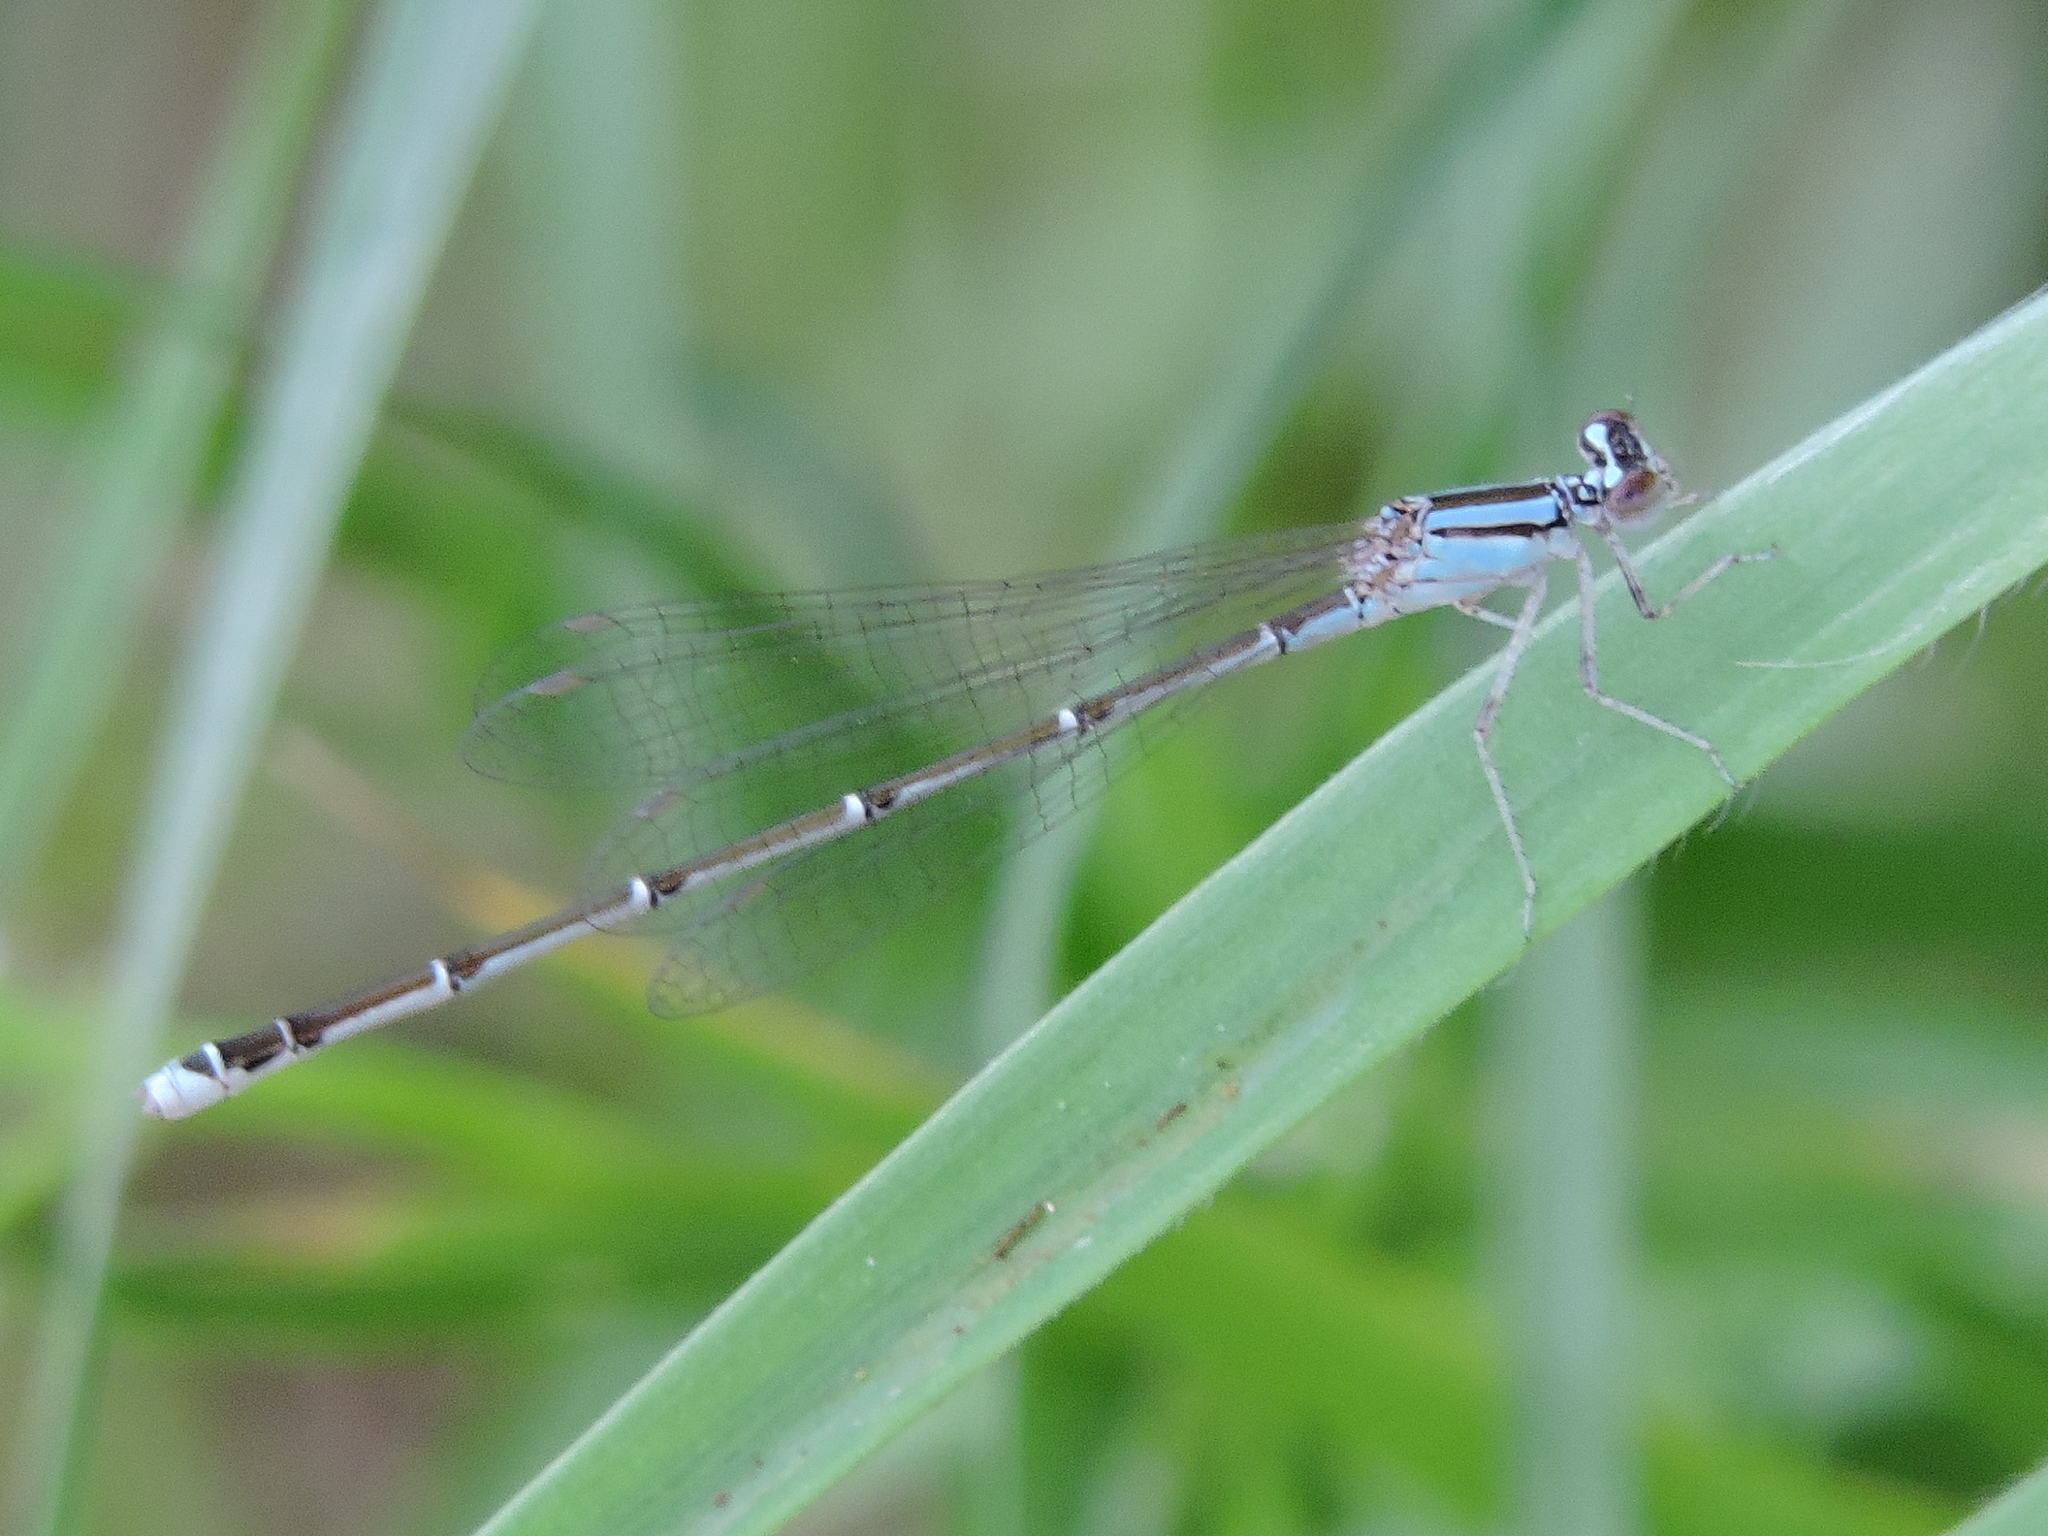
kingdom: Animalia
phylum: Arthropoda
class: Insecta
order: Odonata
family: Coenagrionidae
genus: Enallagma
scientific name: Enallagma signatum
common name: Orange bluet
